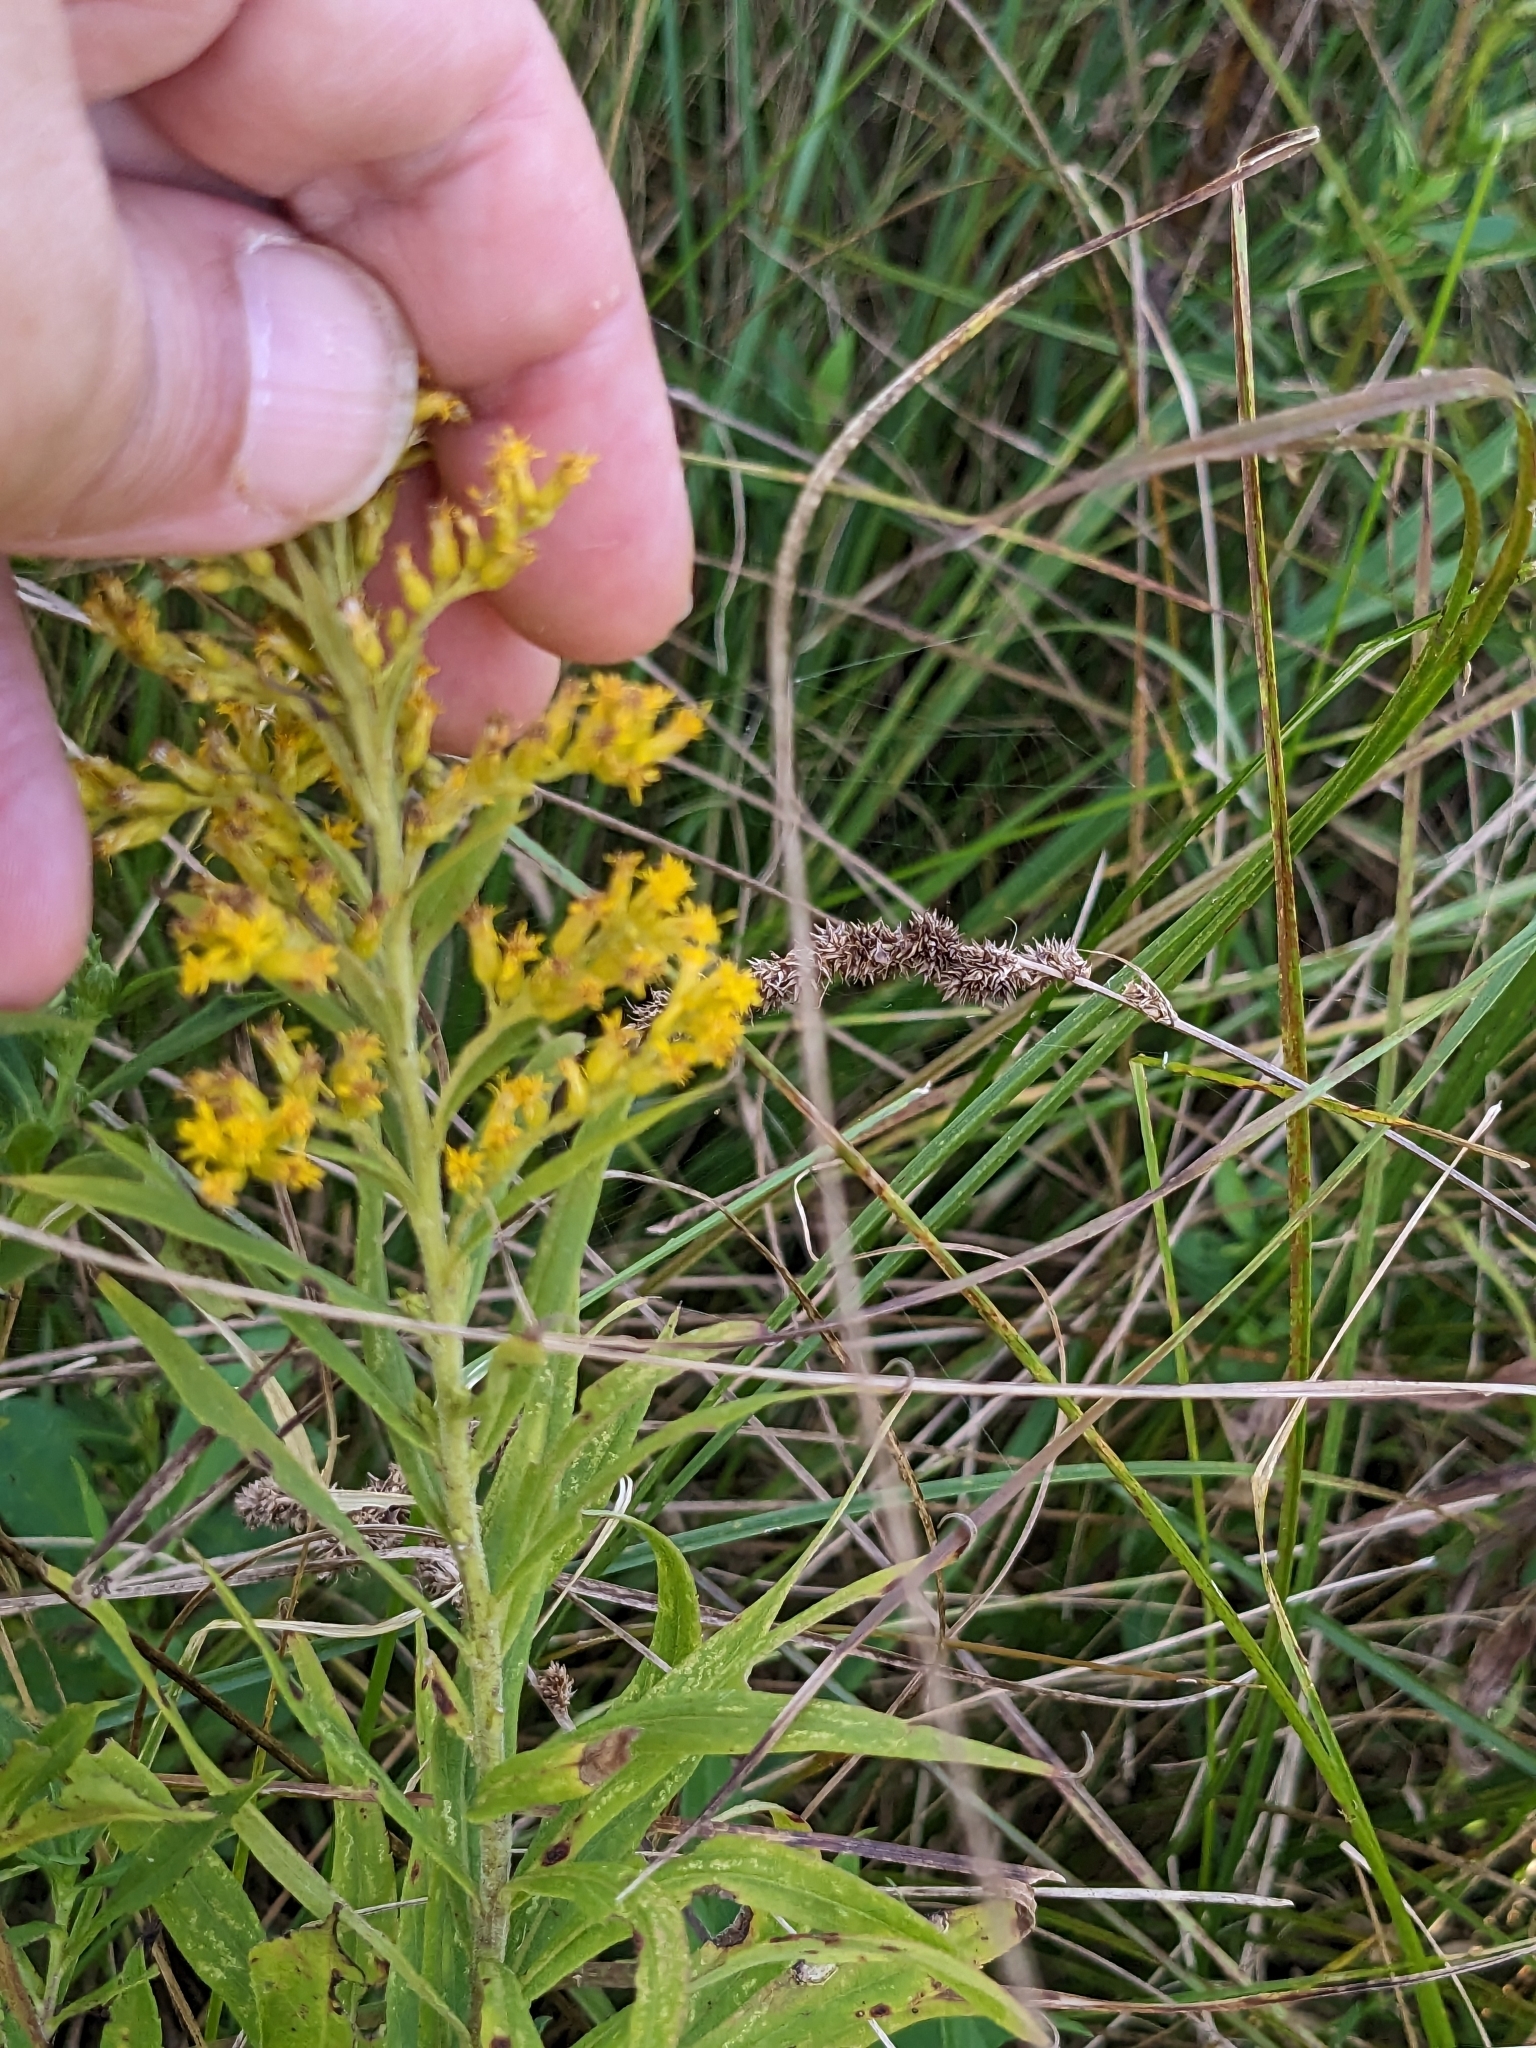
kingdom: Plantae
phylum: Tracheophyta
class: Magnoliopsida
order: Asterales
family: Asteraceae
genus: Solidago
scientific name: Solidago altissima
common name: Late goldenrod
